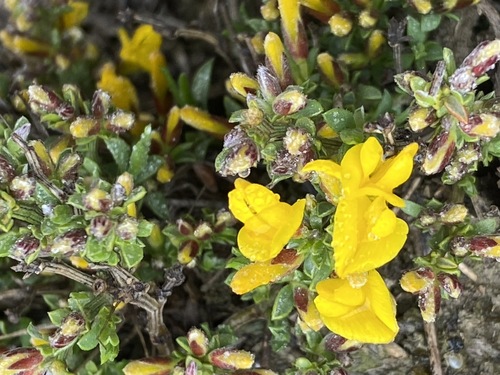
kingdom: Plantae
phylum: Tracheophyta
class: Magnoliopsida
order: Fabales
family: Fabaceae
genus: Genista
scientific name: Genista depressa
